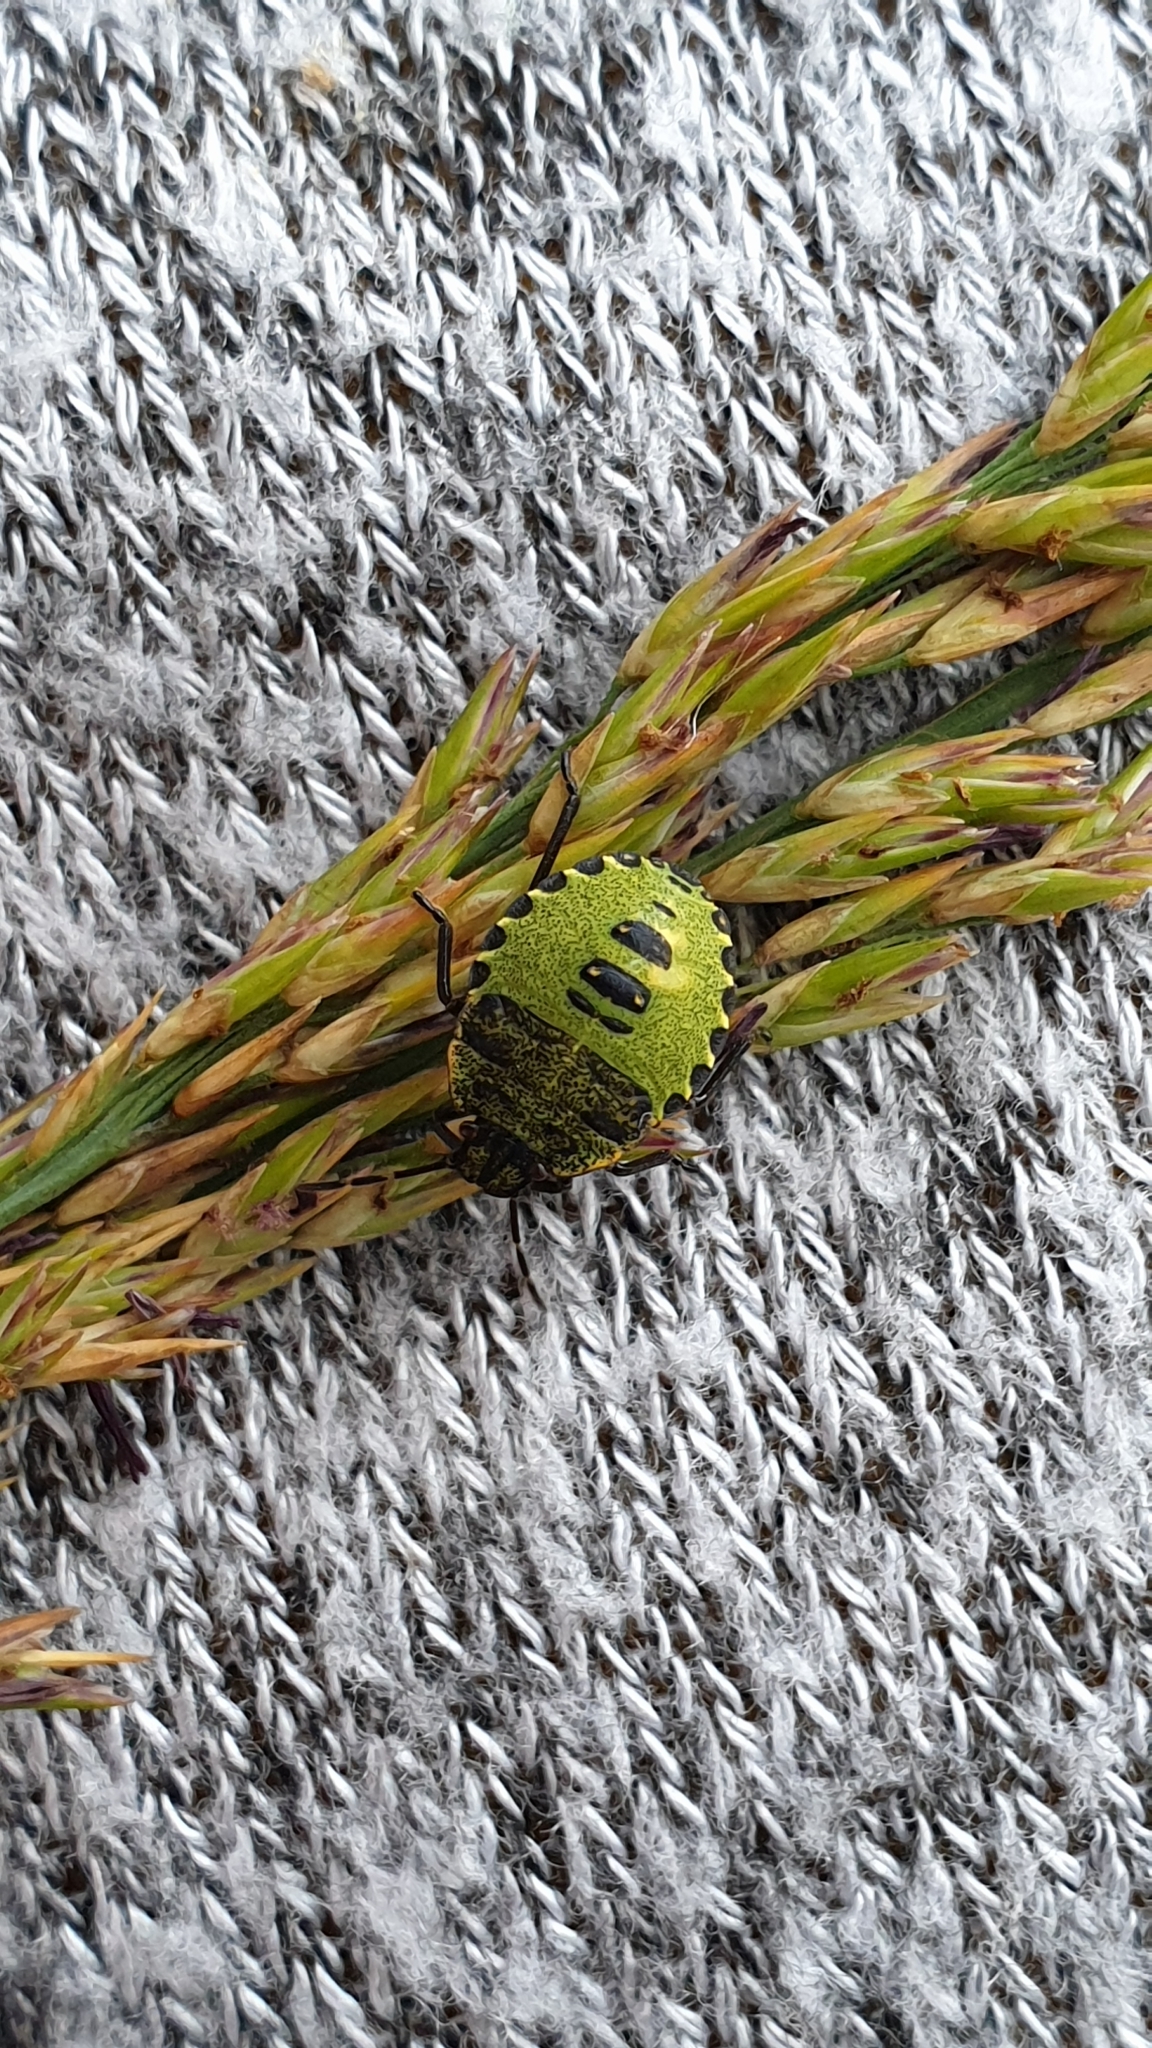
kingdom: Animalia
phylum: Arthropoda
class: Insecta
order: Hemiptera
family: Pentatomidae
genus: Palomena
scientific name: Palomena prasina
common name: Green shieldbug
